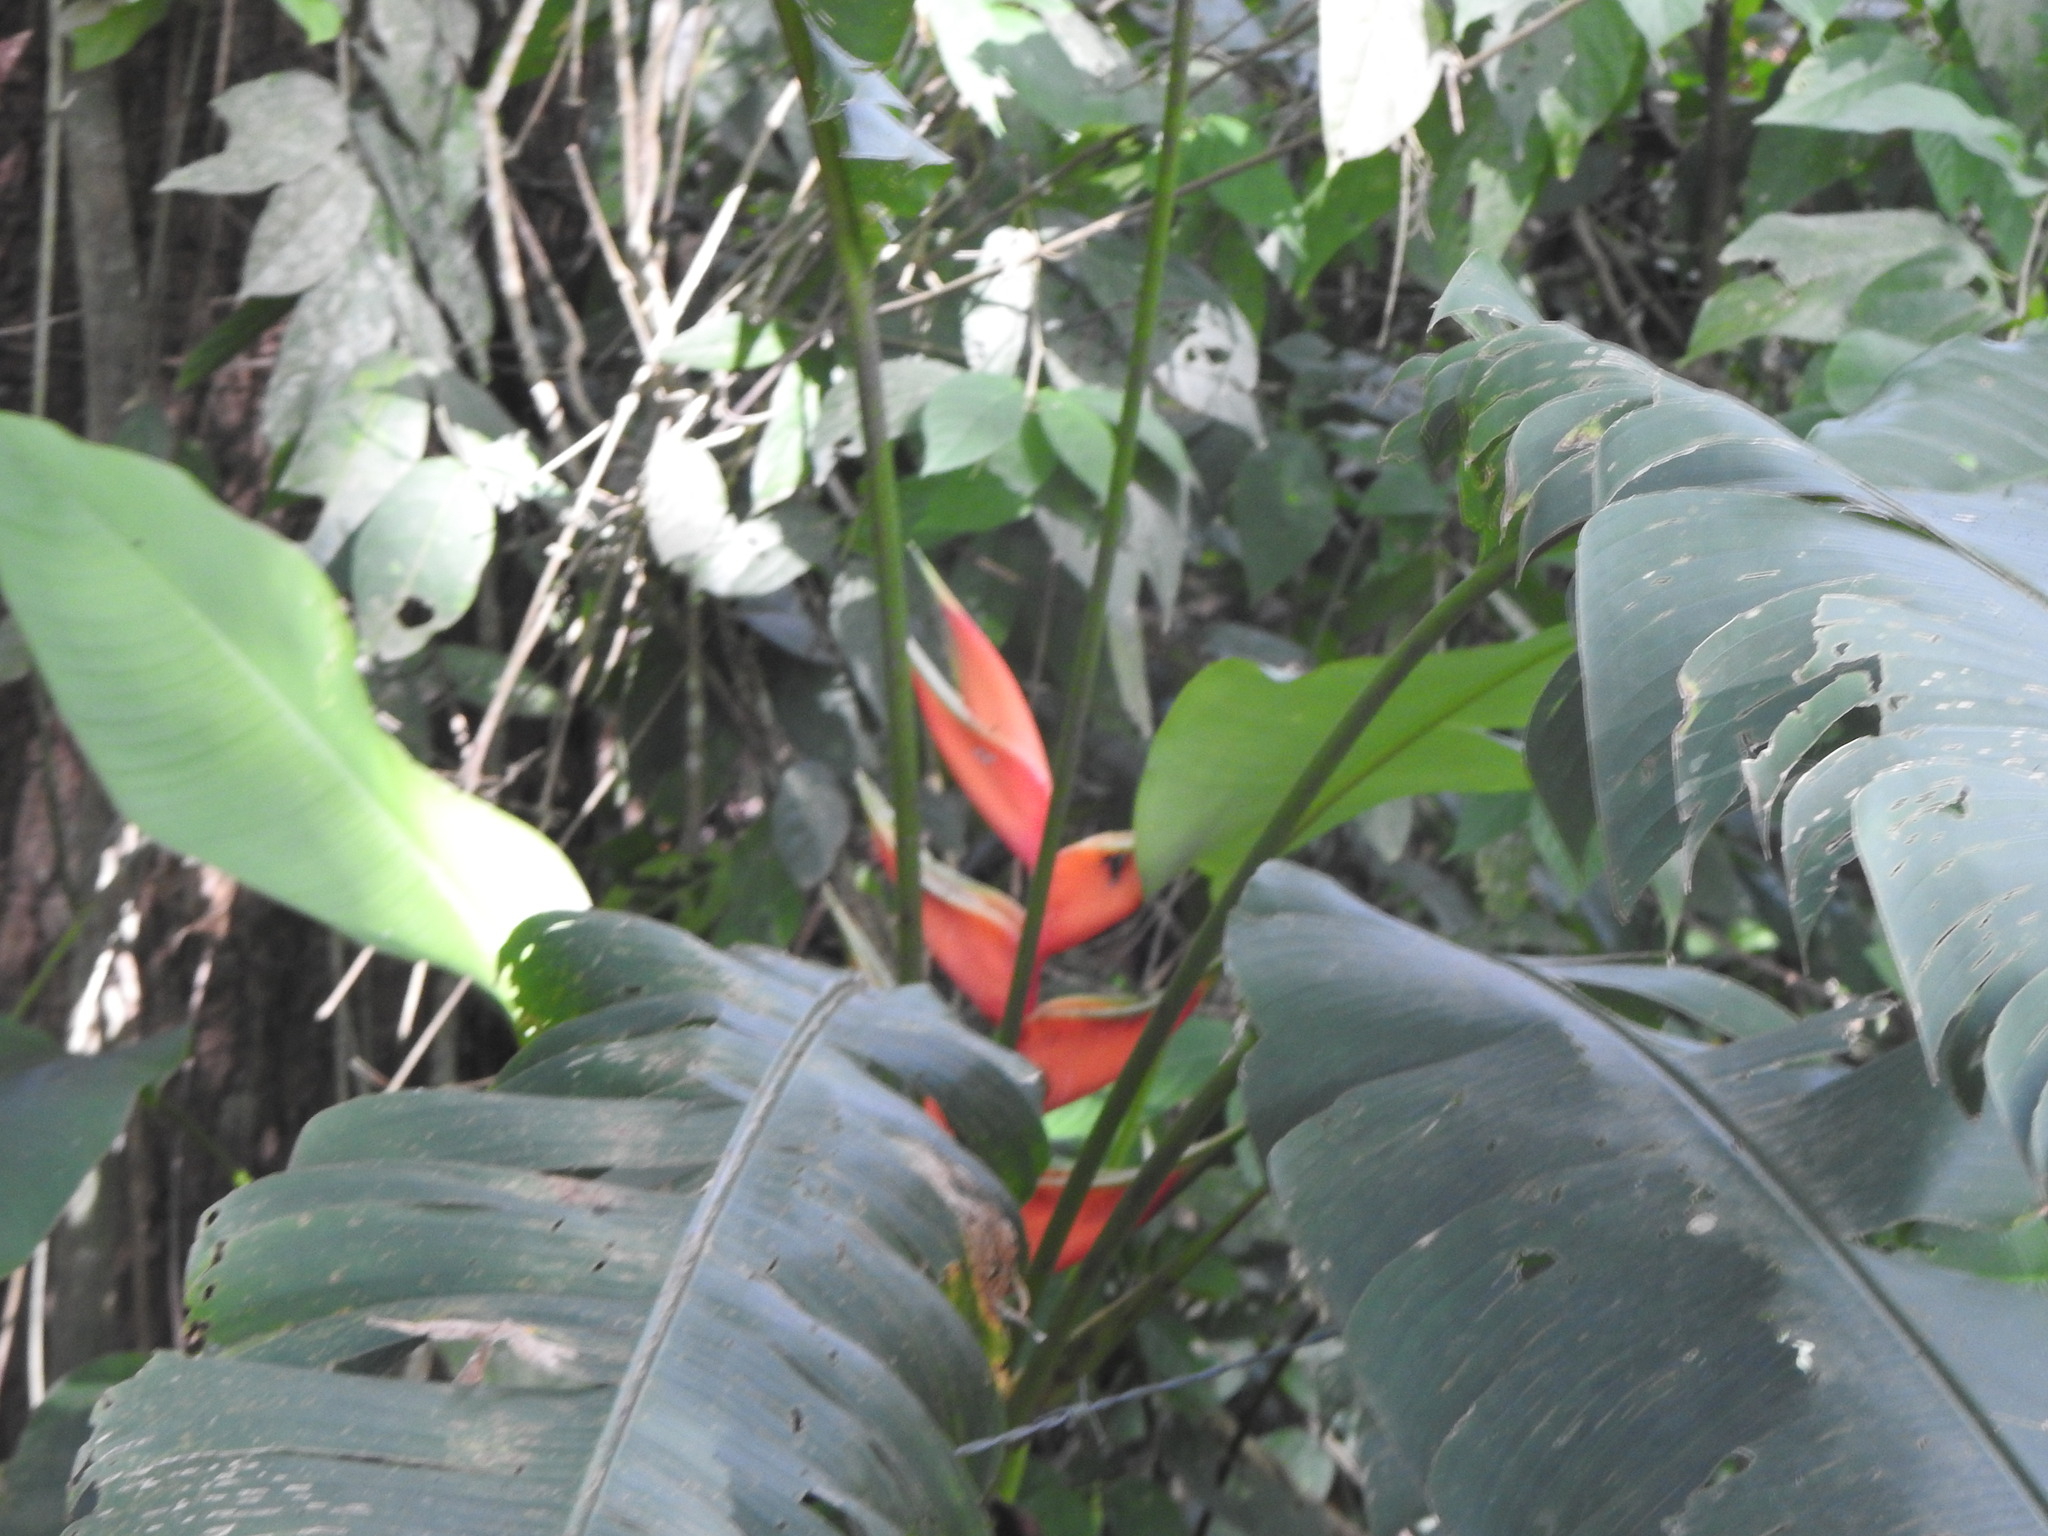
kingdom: Plantae
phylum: Tracheophyta
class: Liliopsida
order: Zingiberales
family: Heliconiaceae
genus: Heliconia
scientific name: Heliconia bihai
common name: Macaw flower
